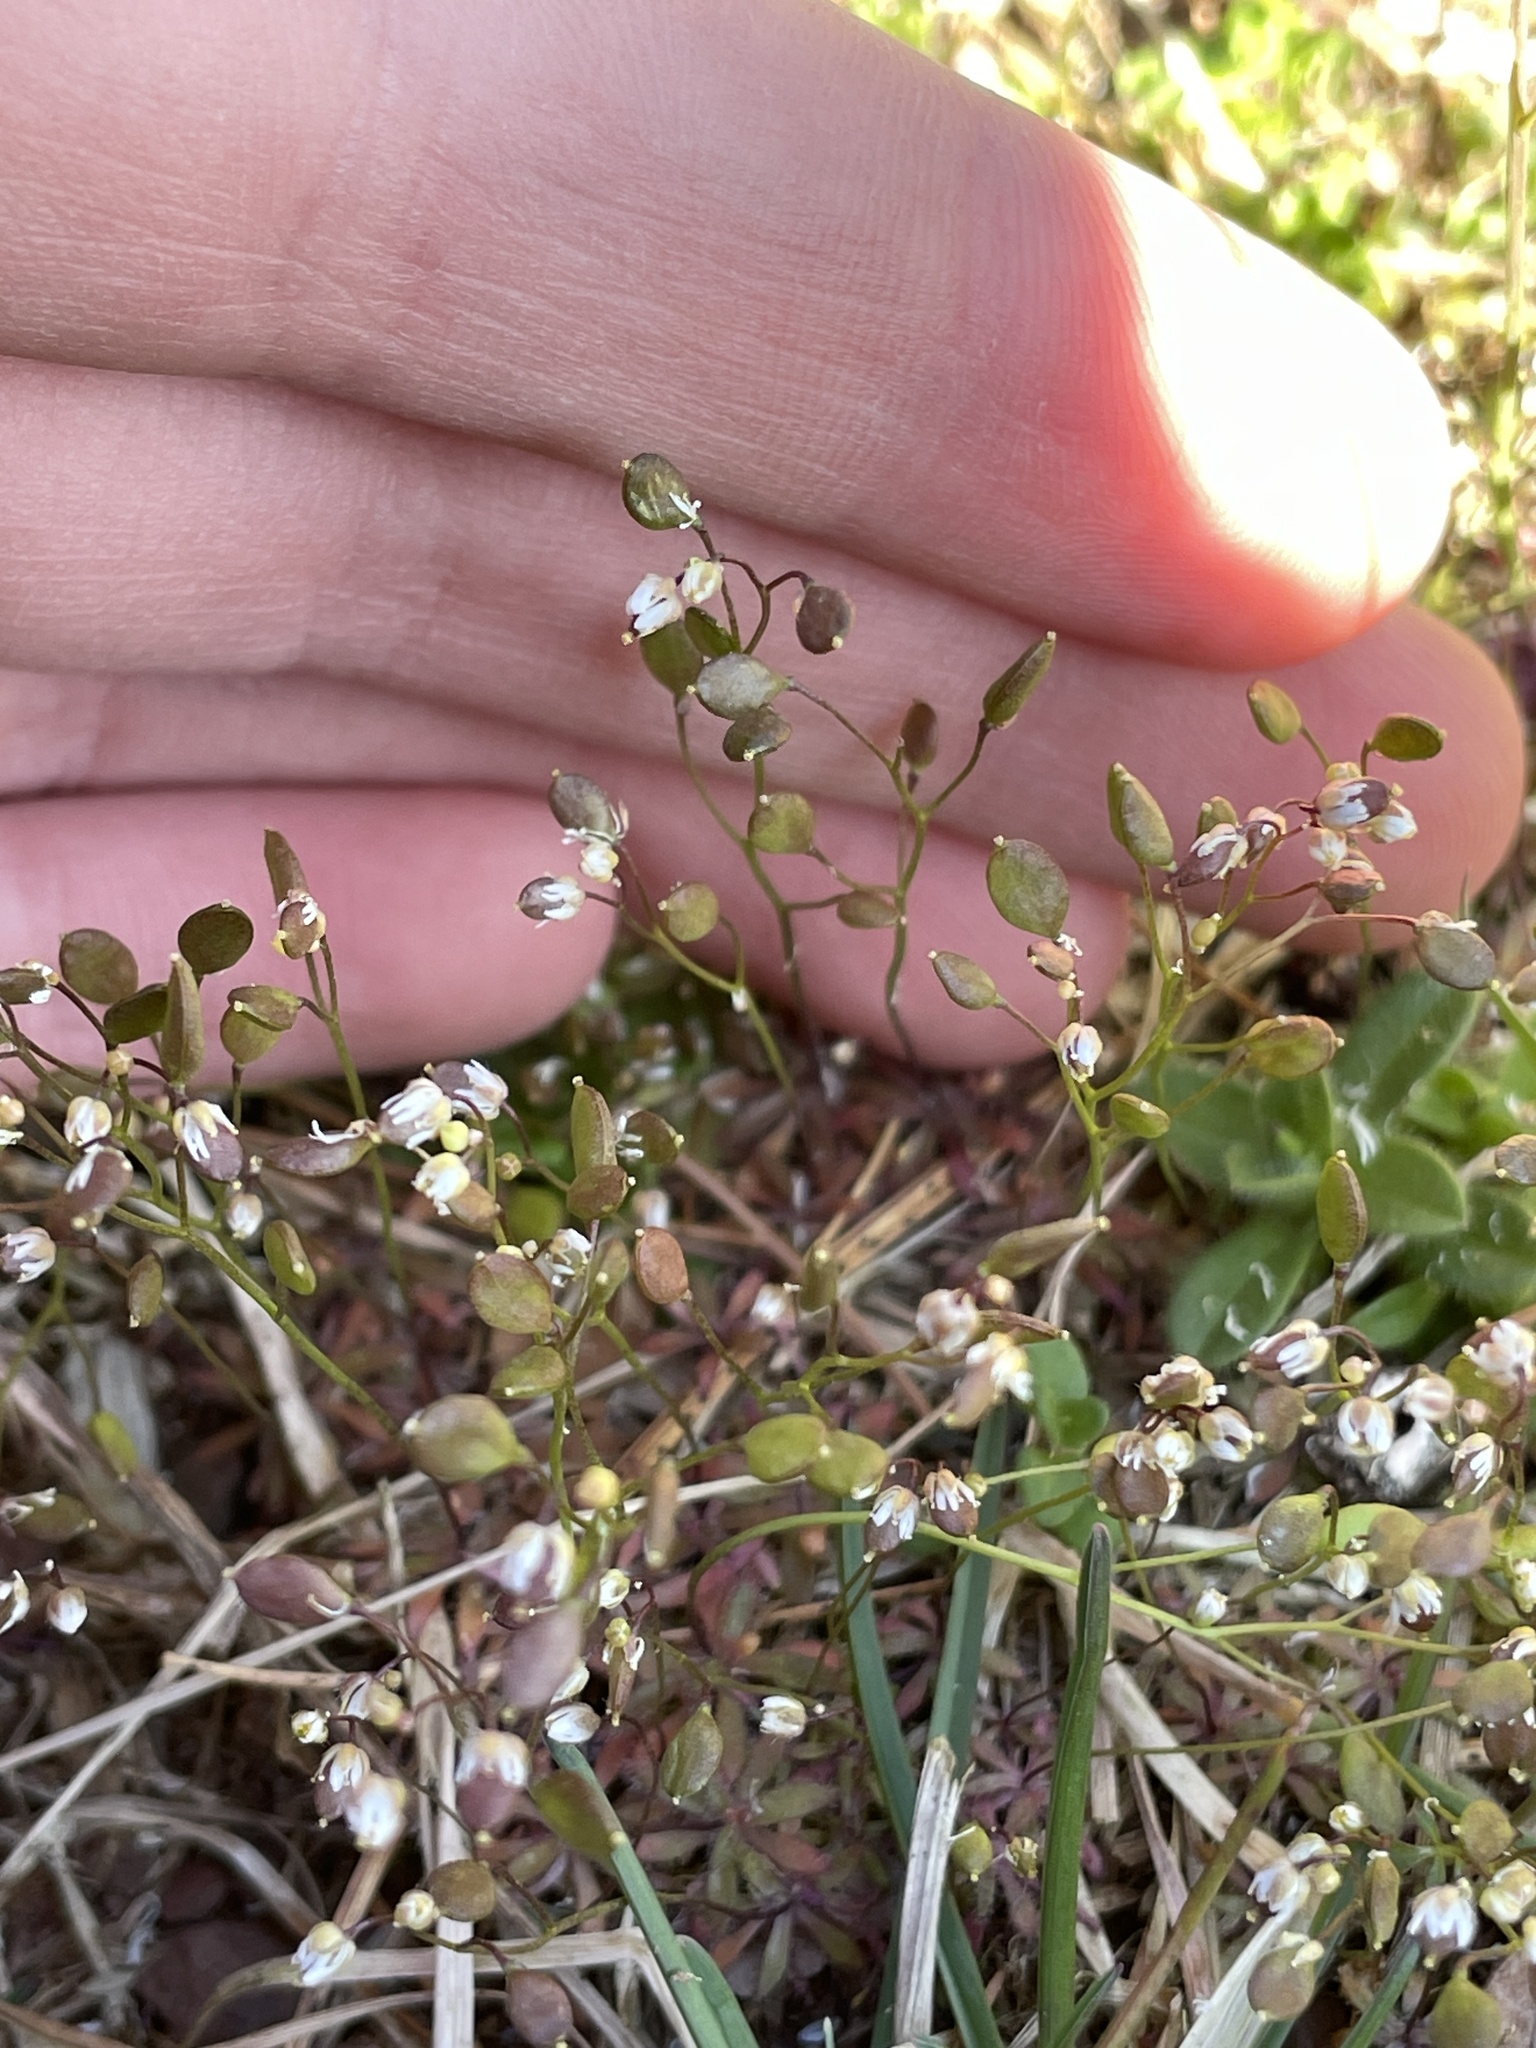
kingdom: Plantae
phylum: Tracheophyta
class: Magnoliopsida
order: Brassicales
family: Brassicaceae
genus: Draba
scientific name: Draba verna
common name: Spring draba
